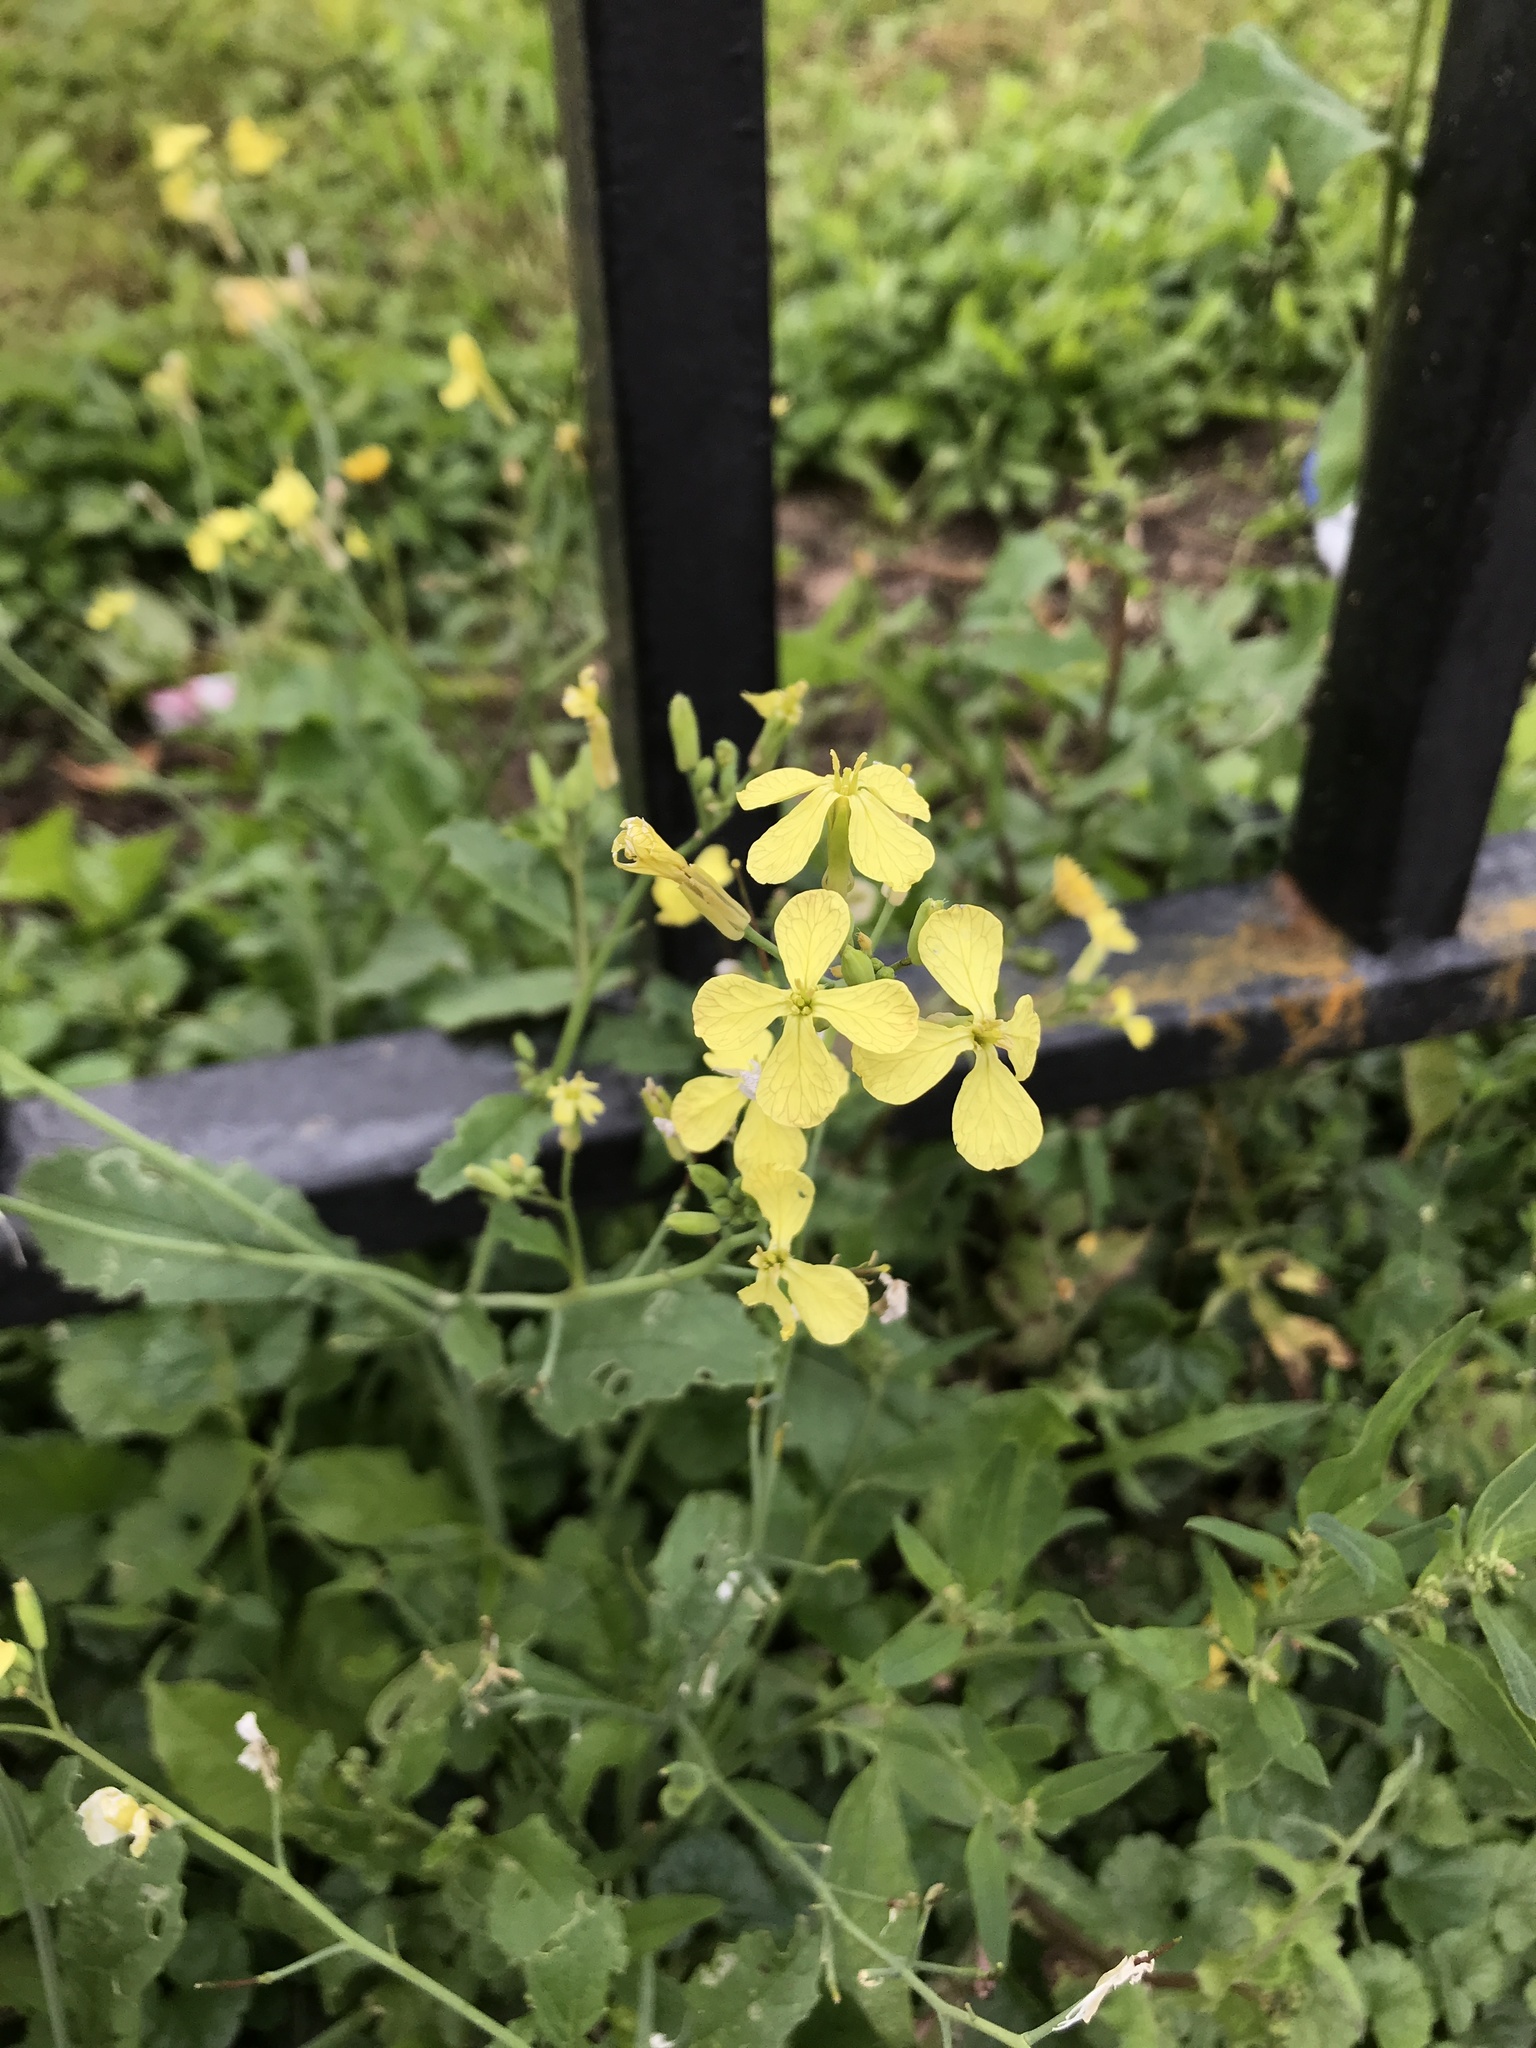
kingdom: Plantae
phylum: Tracheophyta
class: Magnoliopsida
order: Brassicales
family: Brassicaceae
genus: Raphanus
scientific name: Raphanus raphanistrum
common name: Wild radish
